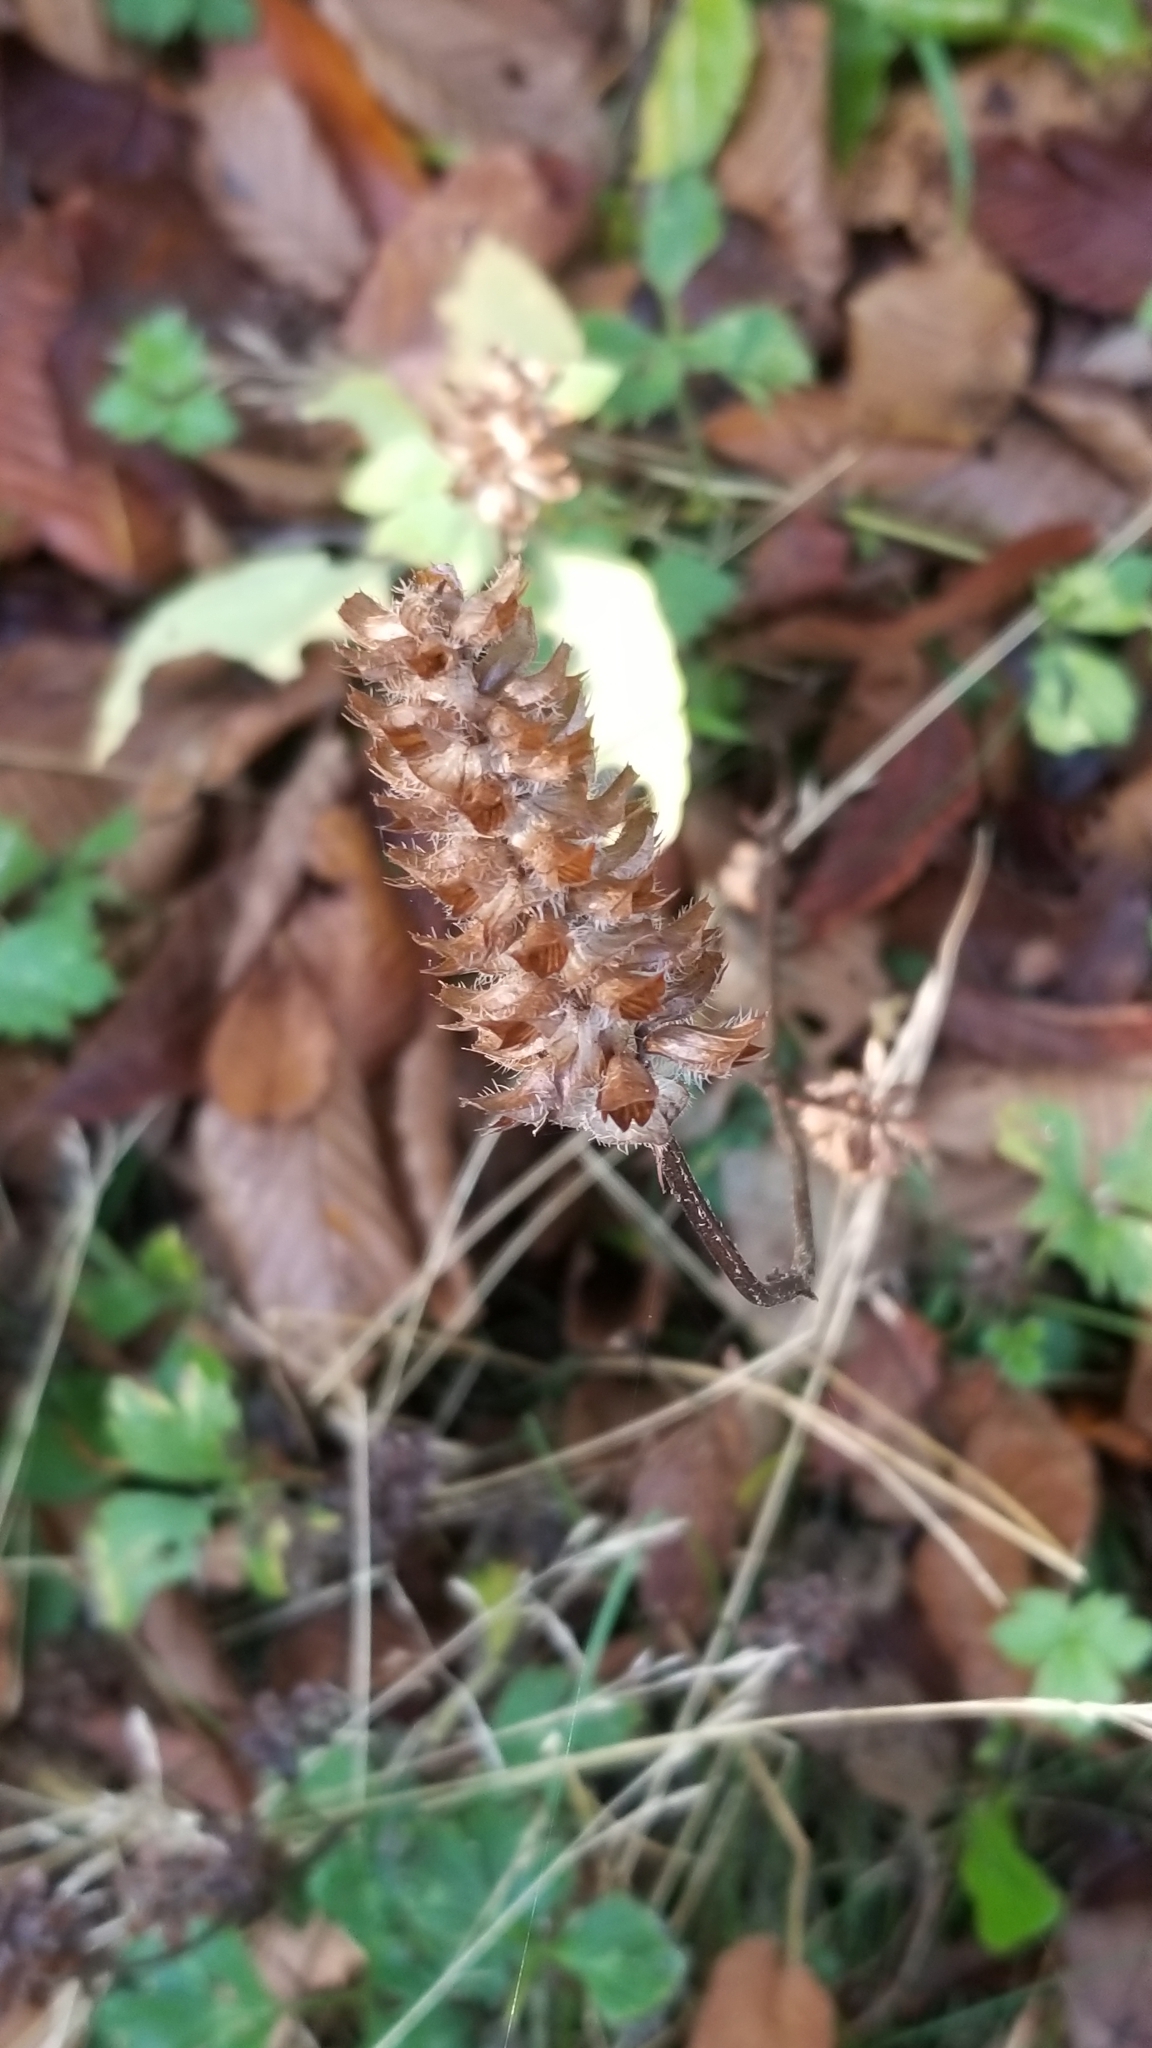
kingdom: Plantae
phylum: Tracheophyta
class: Magnoliopsida
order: Lamiales
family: Lamiaceae
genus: Prunella
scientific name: Prunella vulgaris
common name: Heal-all
